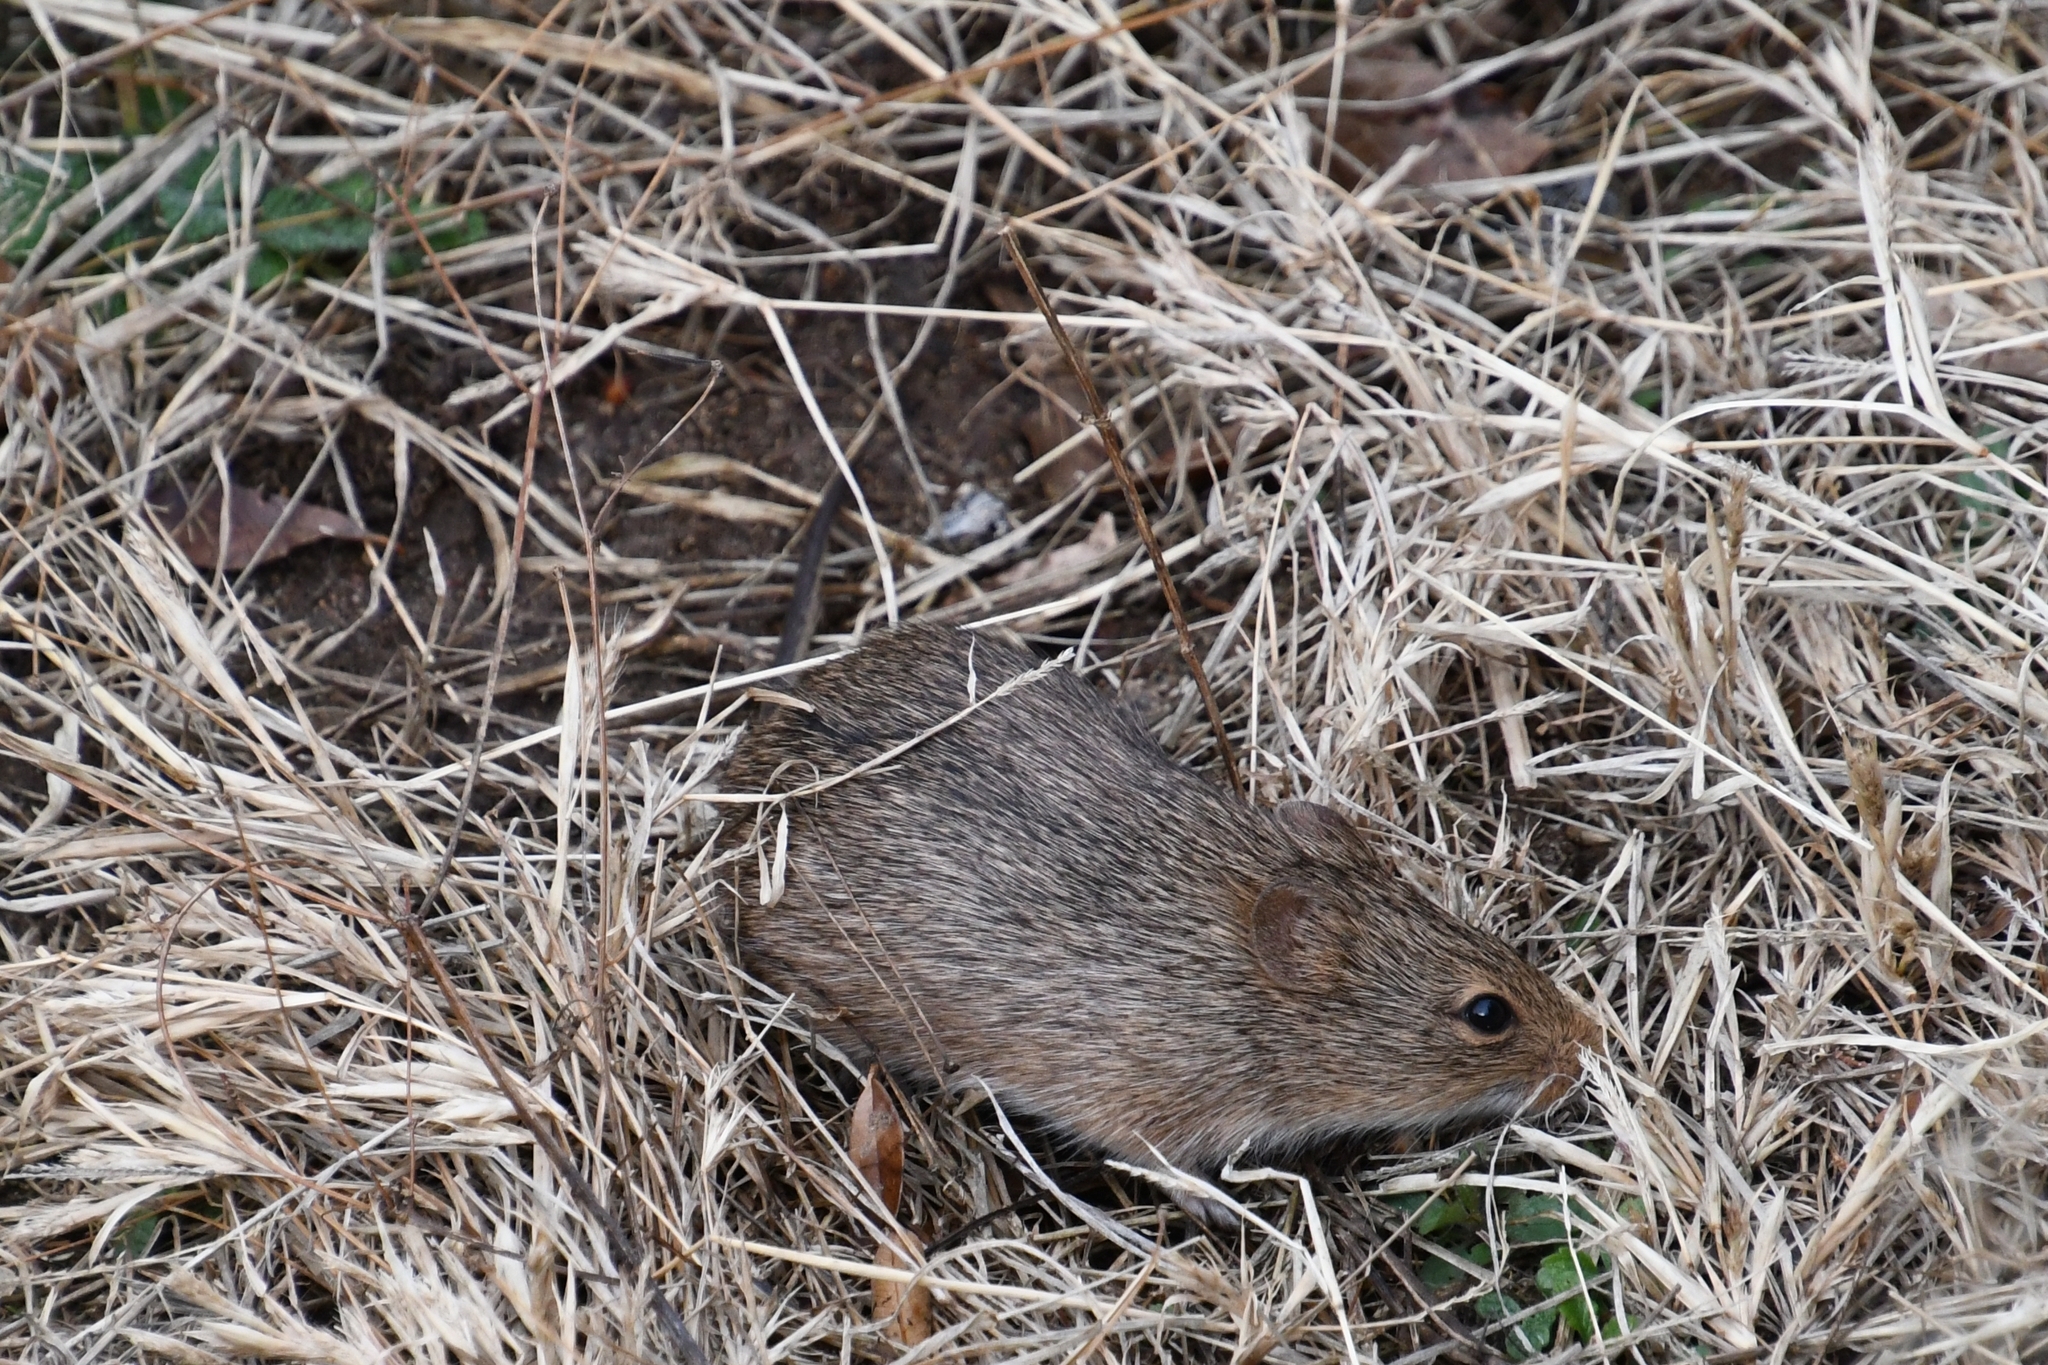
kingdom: Animalia
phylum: Chordata
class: Mammalia
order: Rodentia
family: Cricetidae
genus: Sigmodon
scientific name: Sigmodon ochrognathus
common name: Yellow-nosed cotton rat
